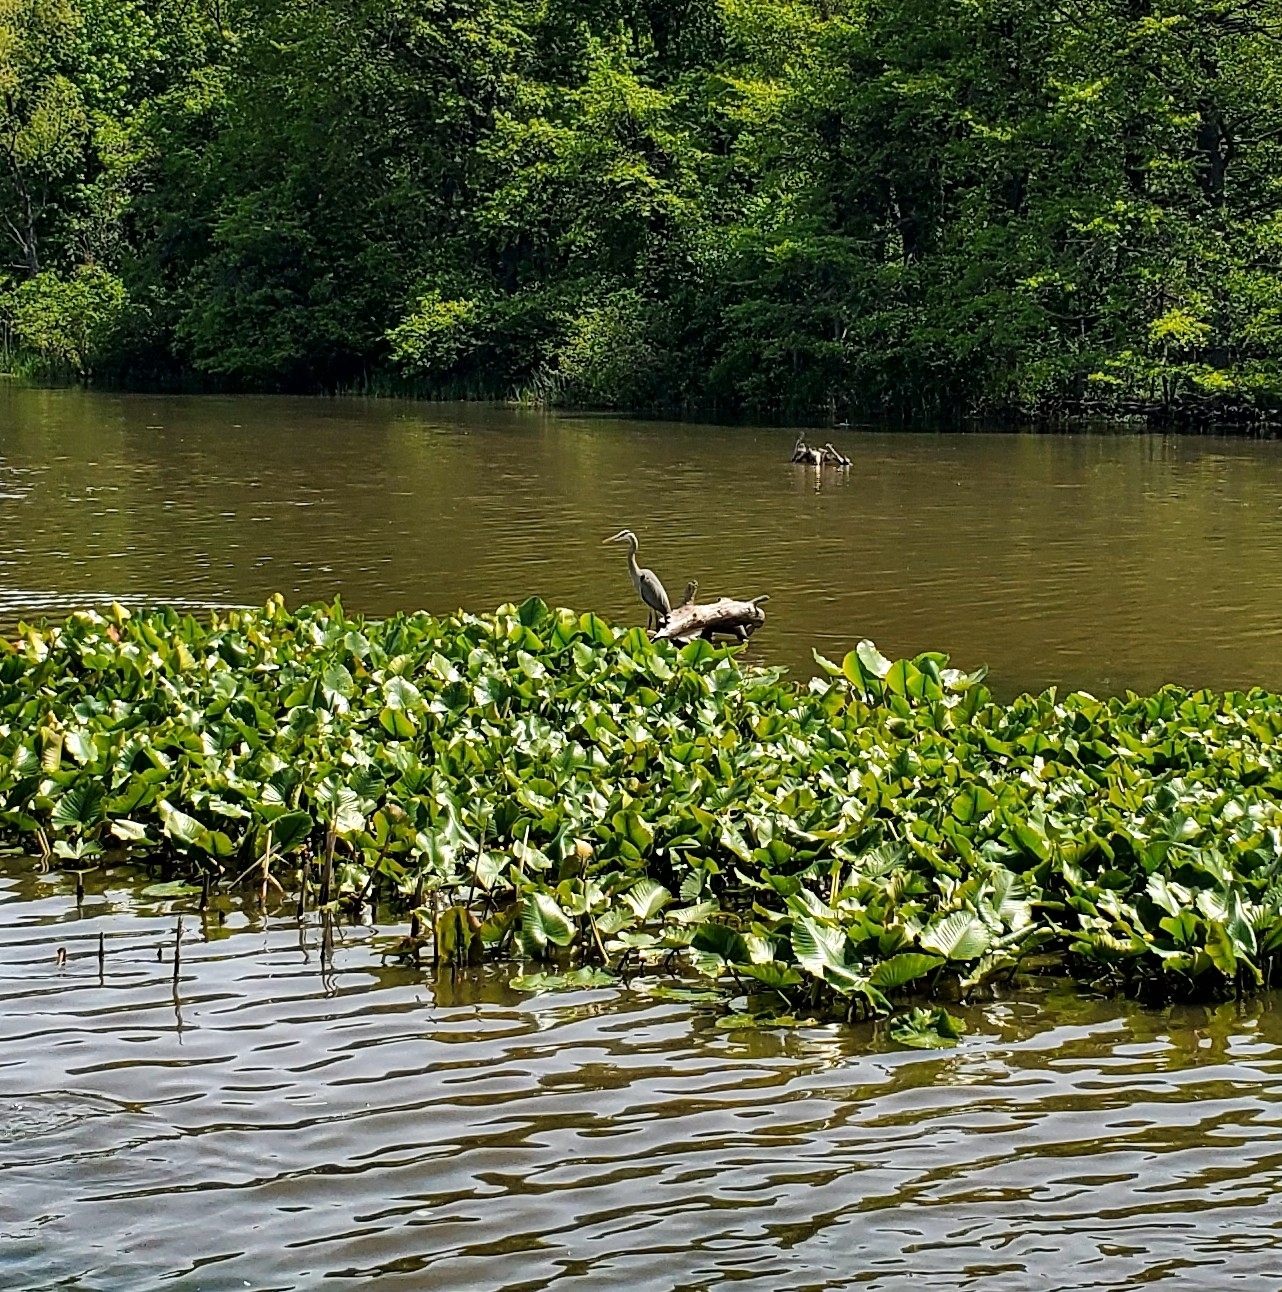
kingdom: Animalia
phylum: Chordata
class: Aves
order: Pelecaniformes
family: Ardeidae
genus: Ardea
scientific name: Ardea herodias
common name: Great blue heron
